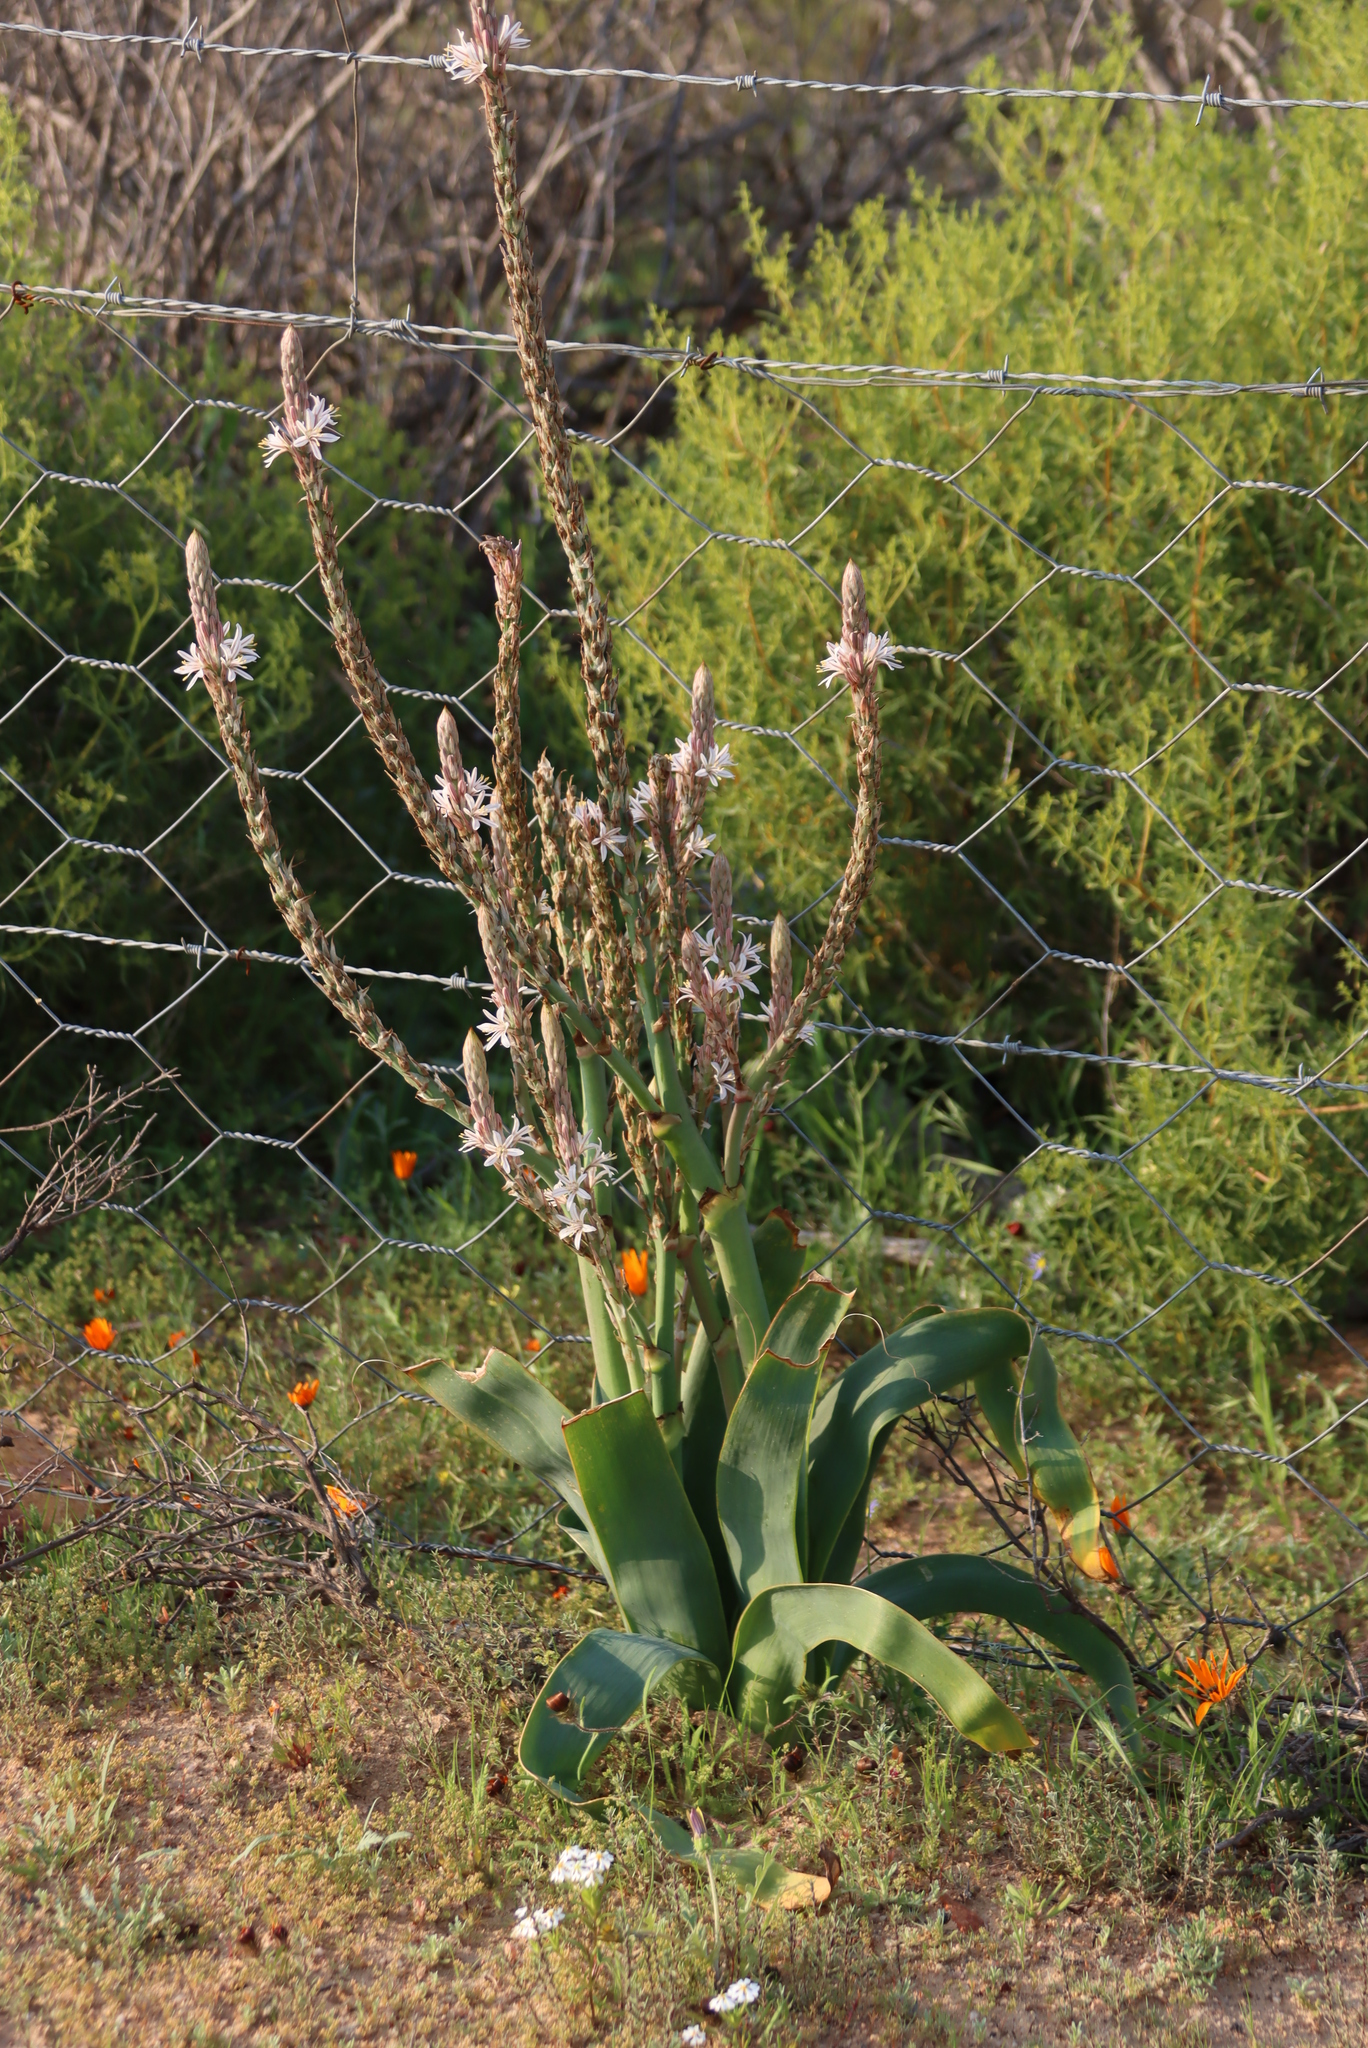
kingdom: Plantae
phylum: Tracheophyta
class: Liliopsida
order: Asparagales
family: Asphodelaceae
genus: Trachyandra
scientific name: Trachyandra falcata
